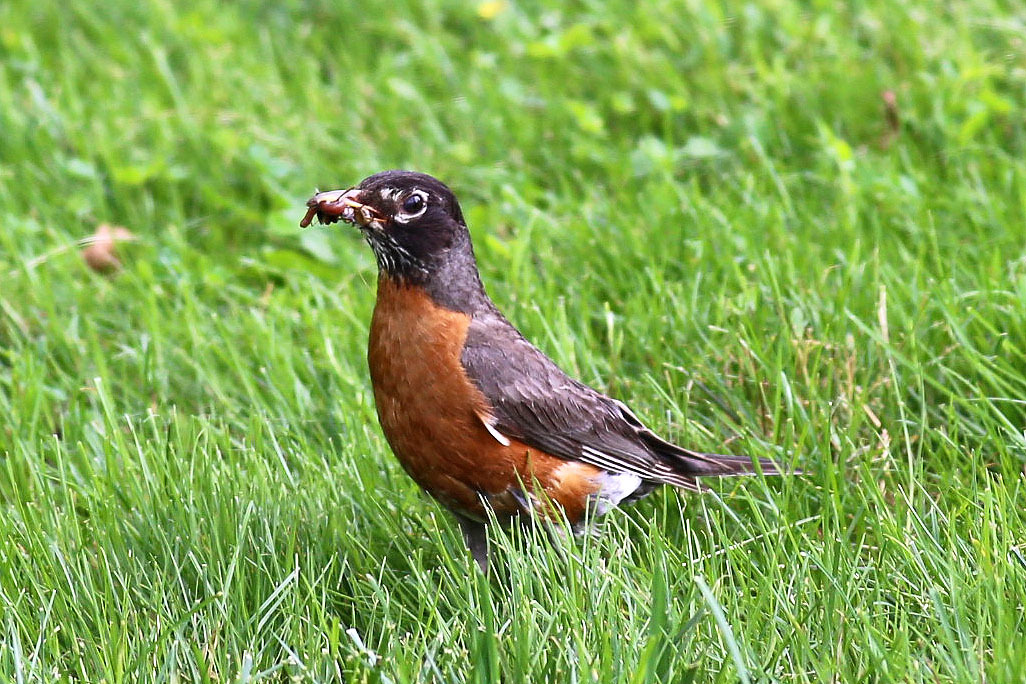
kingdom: Animalia
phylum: Chordata
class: Aves
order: Passeriformes
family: Turdidae
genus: Turdus
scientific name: Turdus migratorius
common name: American robin
